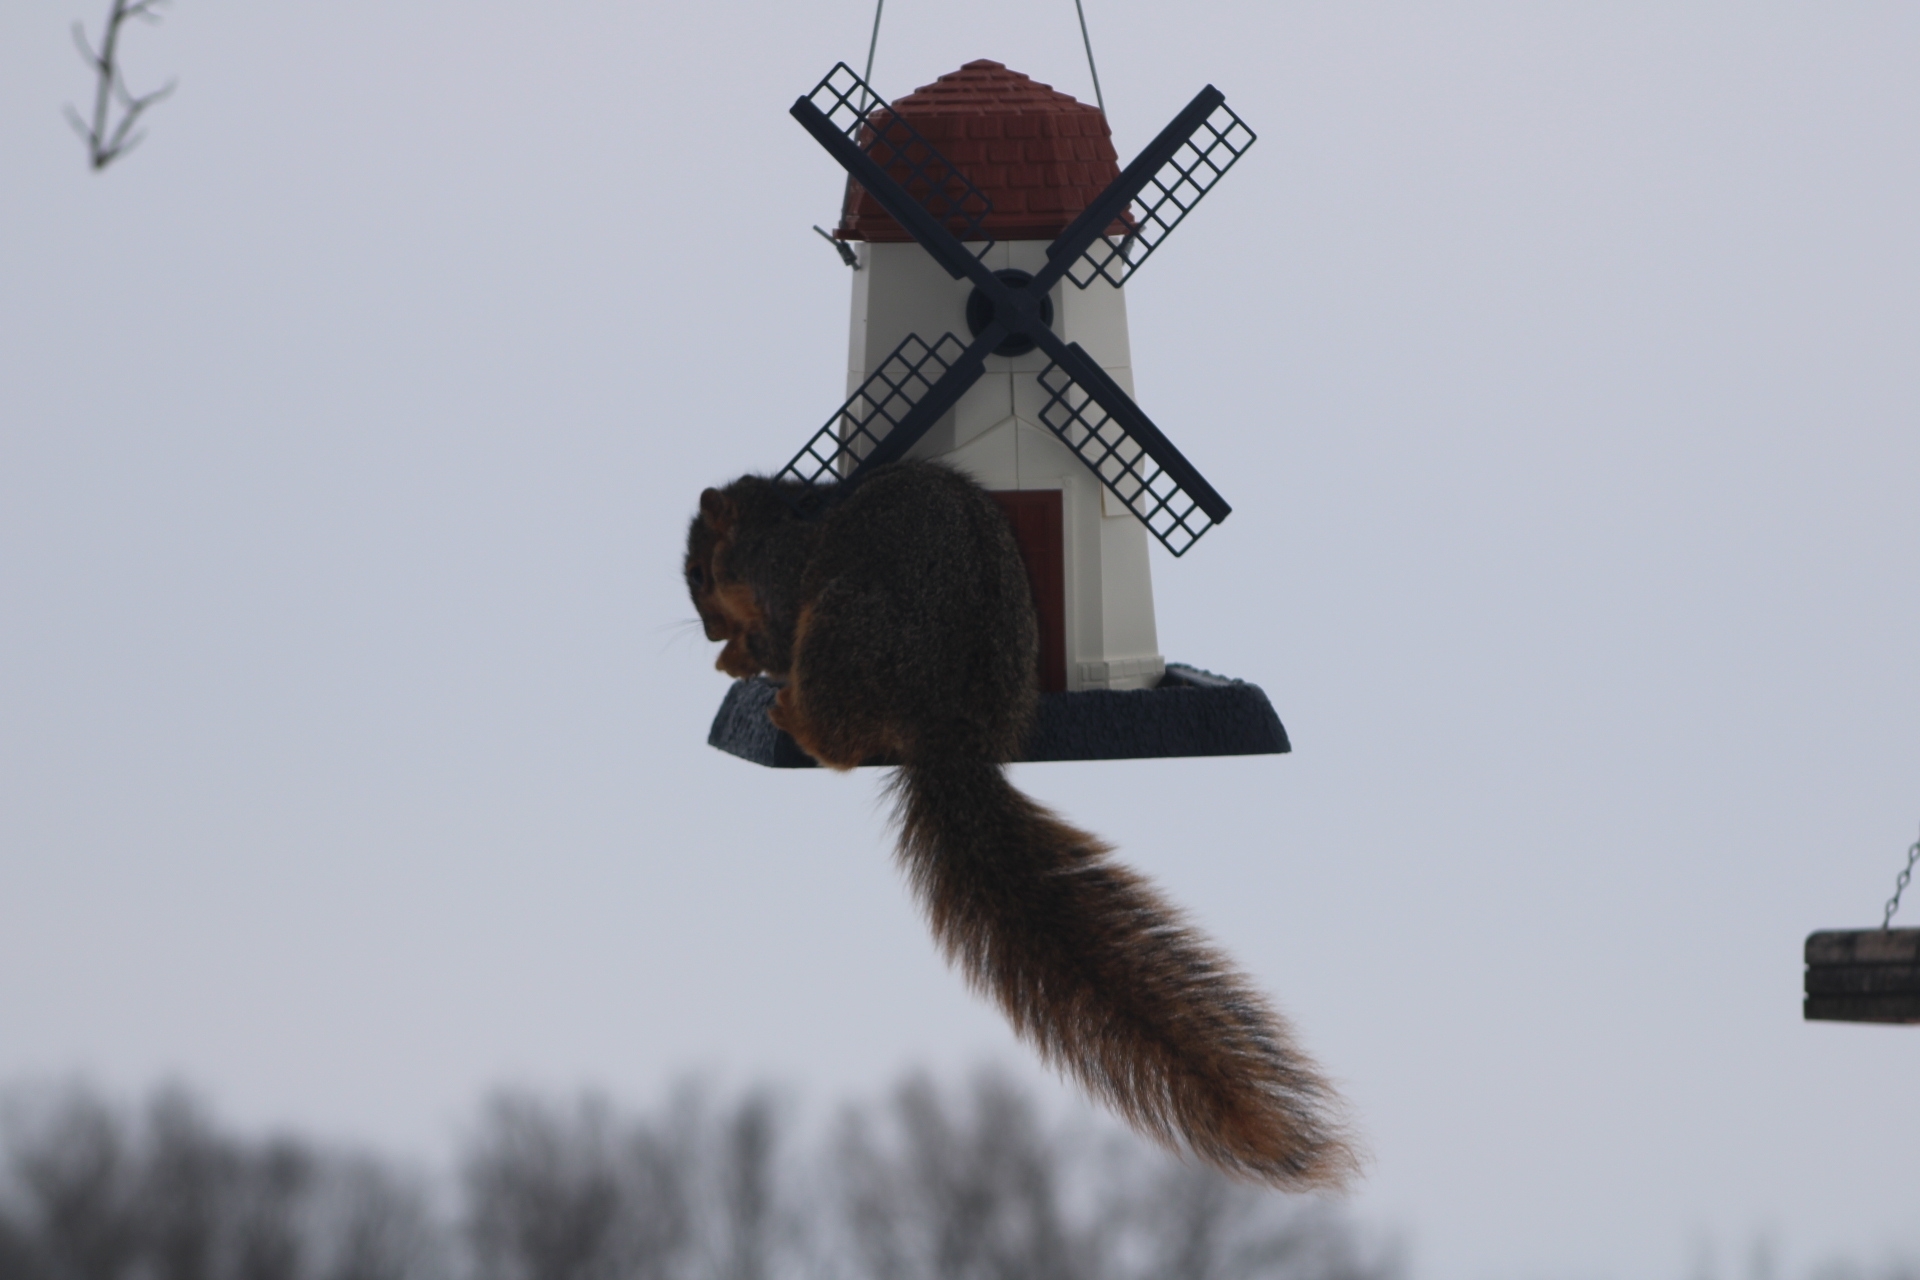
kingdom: Animalia
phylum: Chordata
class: Mammalia
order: Rodentia
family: Sciuridae
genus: Sciurus
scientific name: Sciurus niger
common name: Fox squirrel
